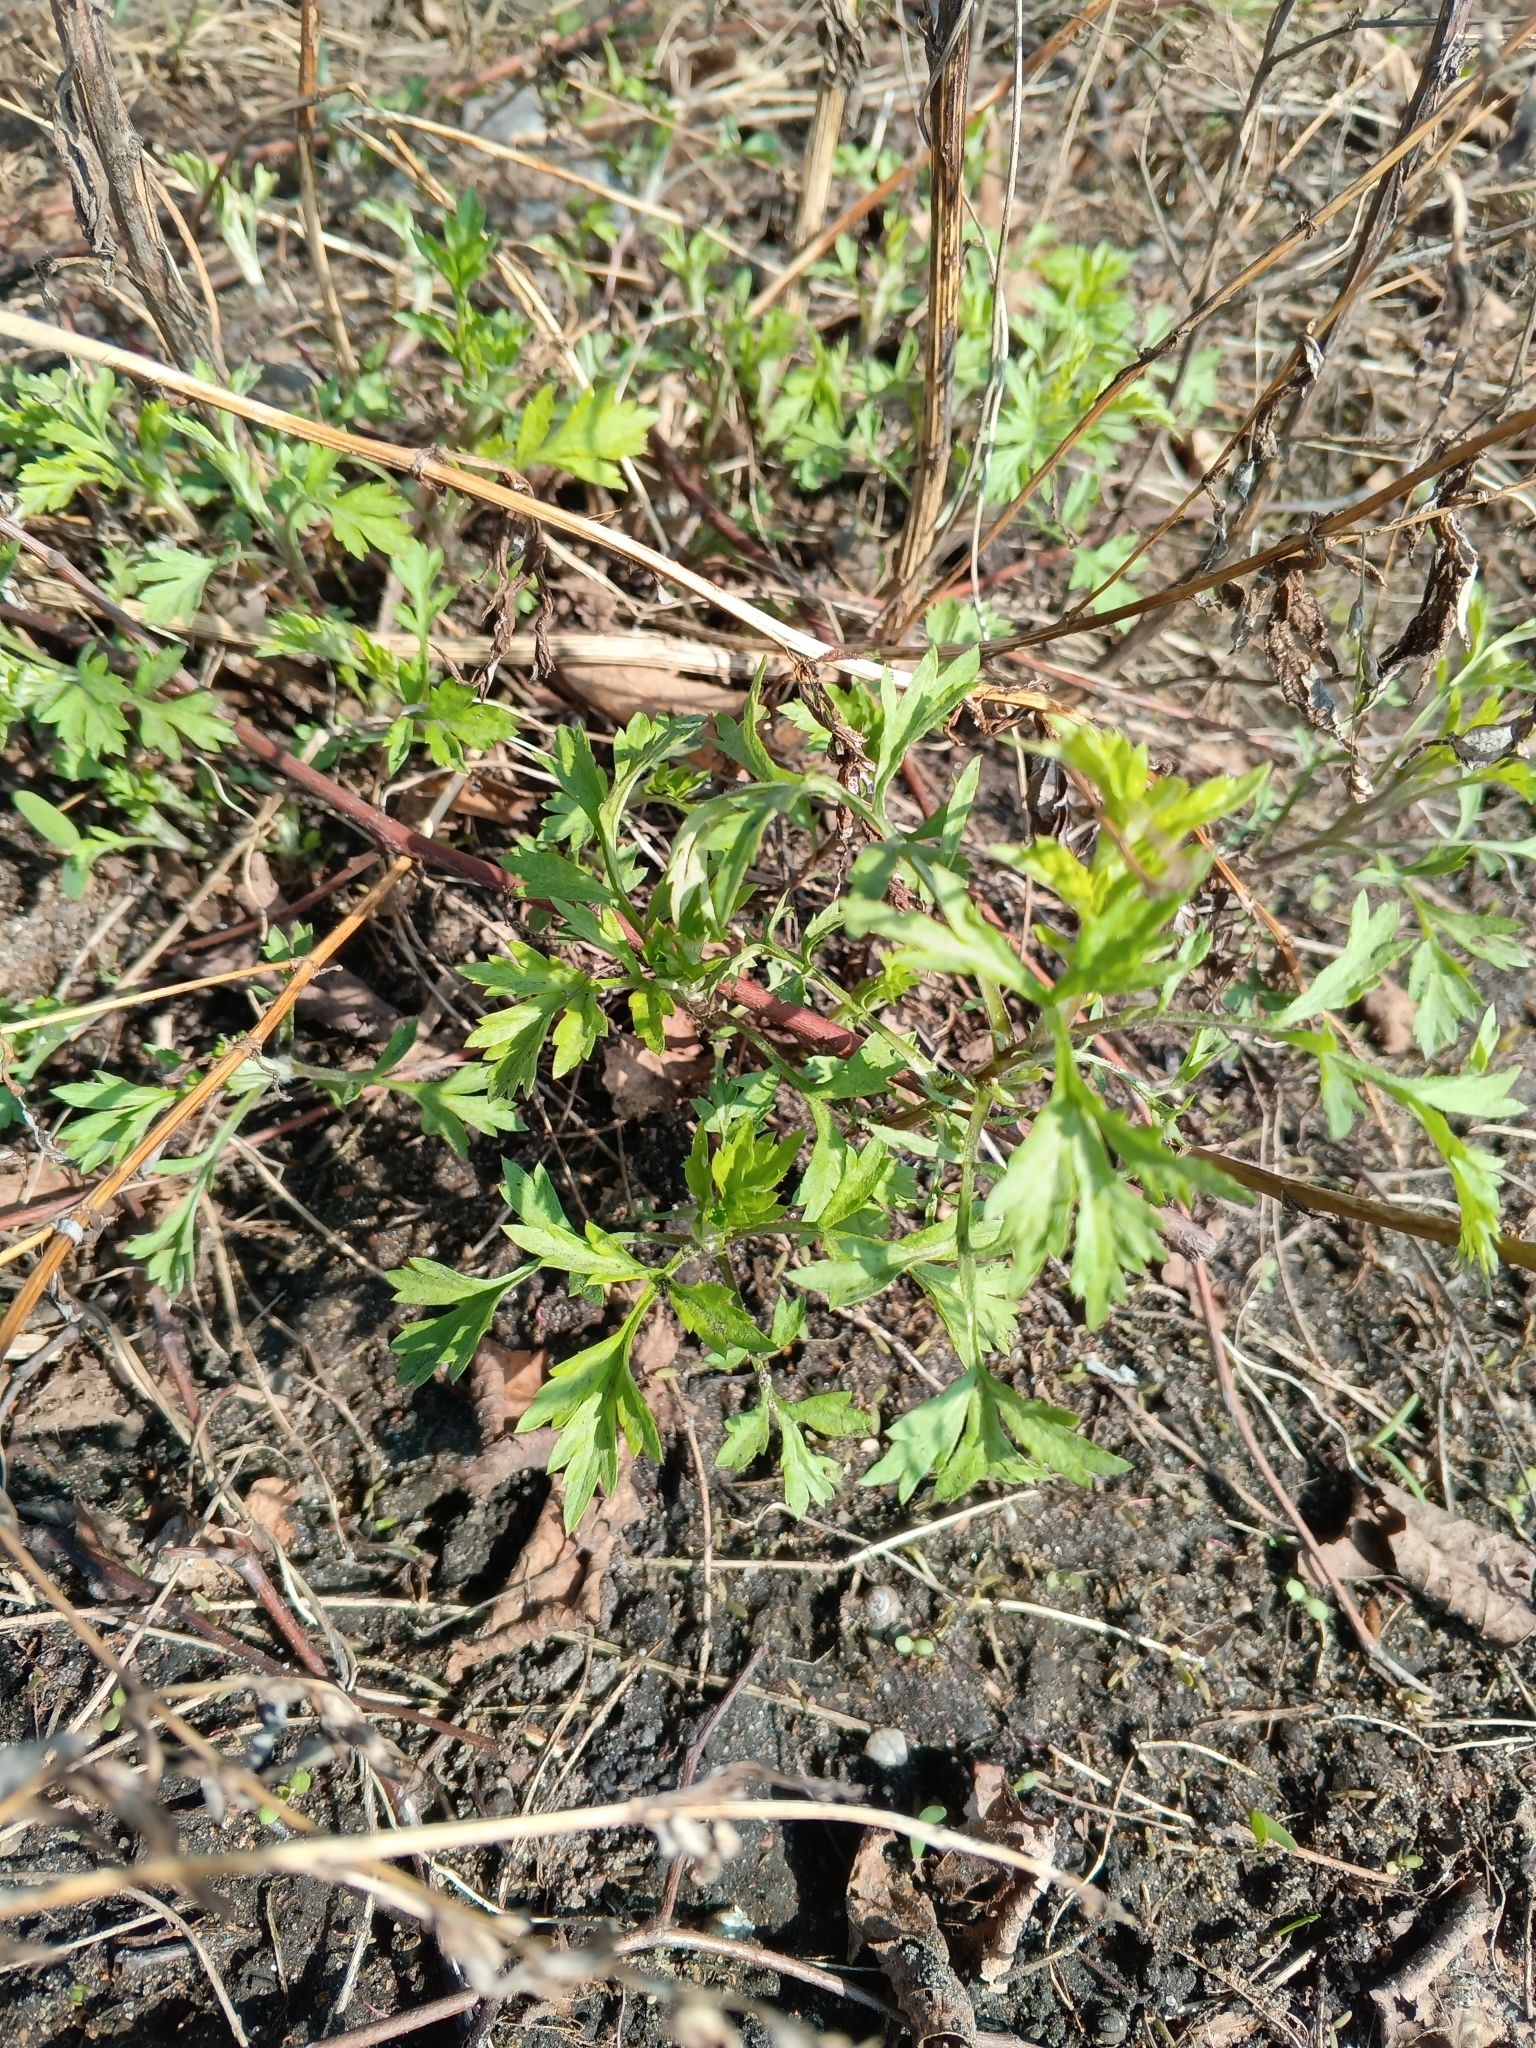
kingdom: Plantae
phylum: Tracheophyta
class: Magnoliopsida
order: Asterales
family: Asteraceae
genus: Artemisia
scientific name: Artemisia vulgaris
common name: Mugwort
